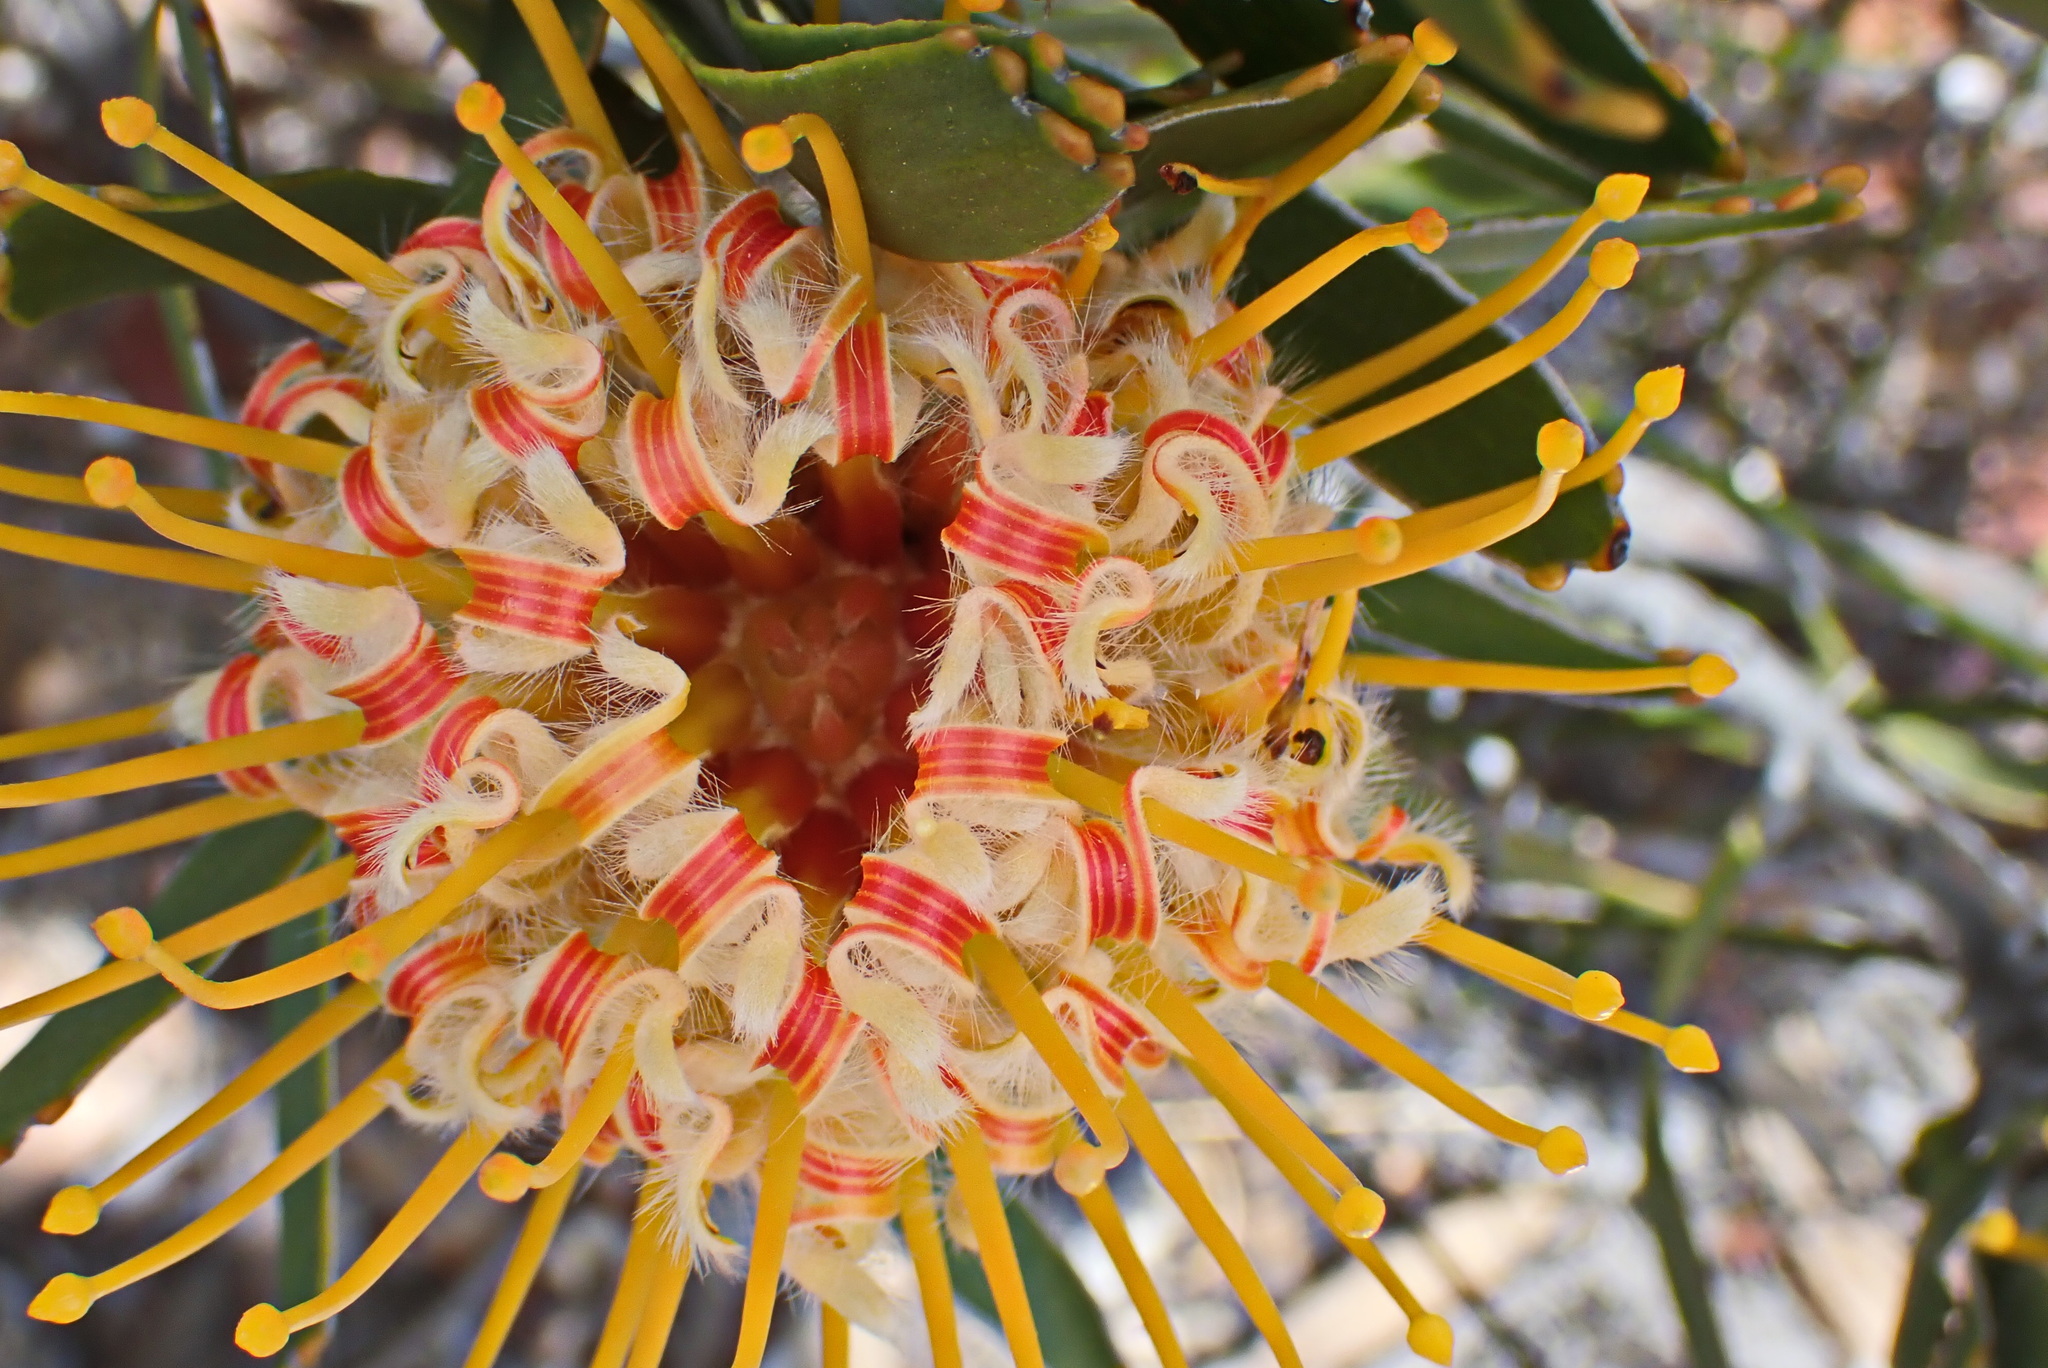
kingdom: Plantae
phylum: Tracheophyta
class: Magnoliopsida
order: Proteales
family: Proteaceae
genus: Leucospermum
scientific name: Leucospermum cuneiforme
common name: Common pincushion
